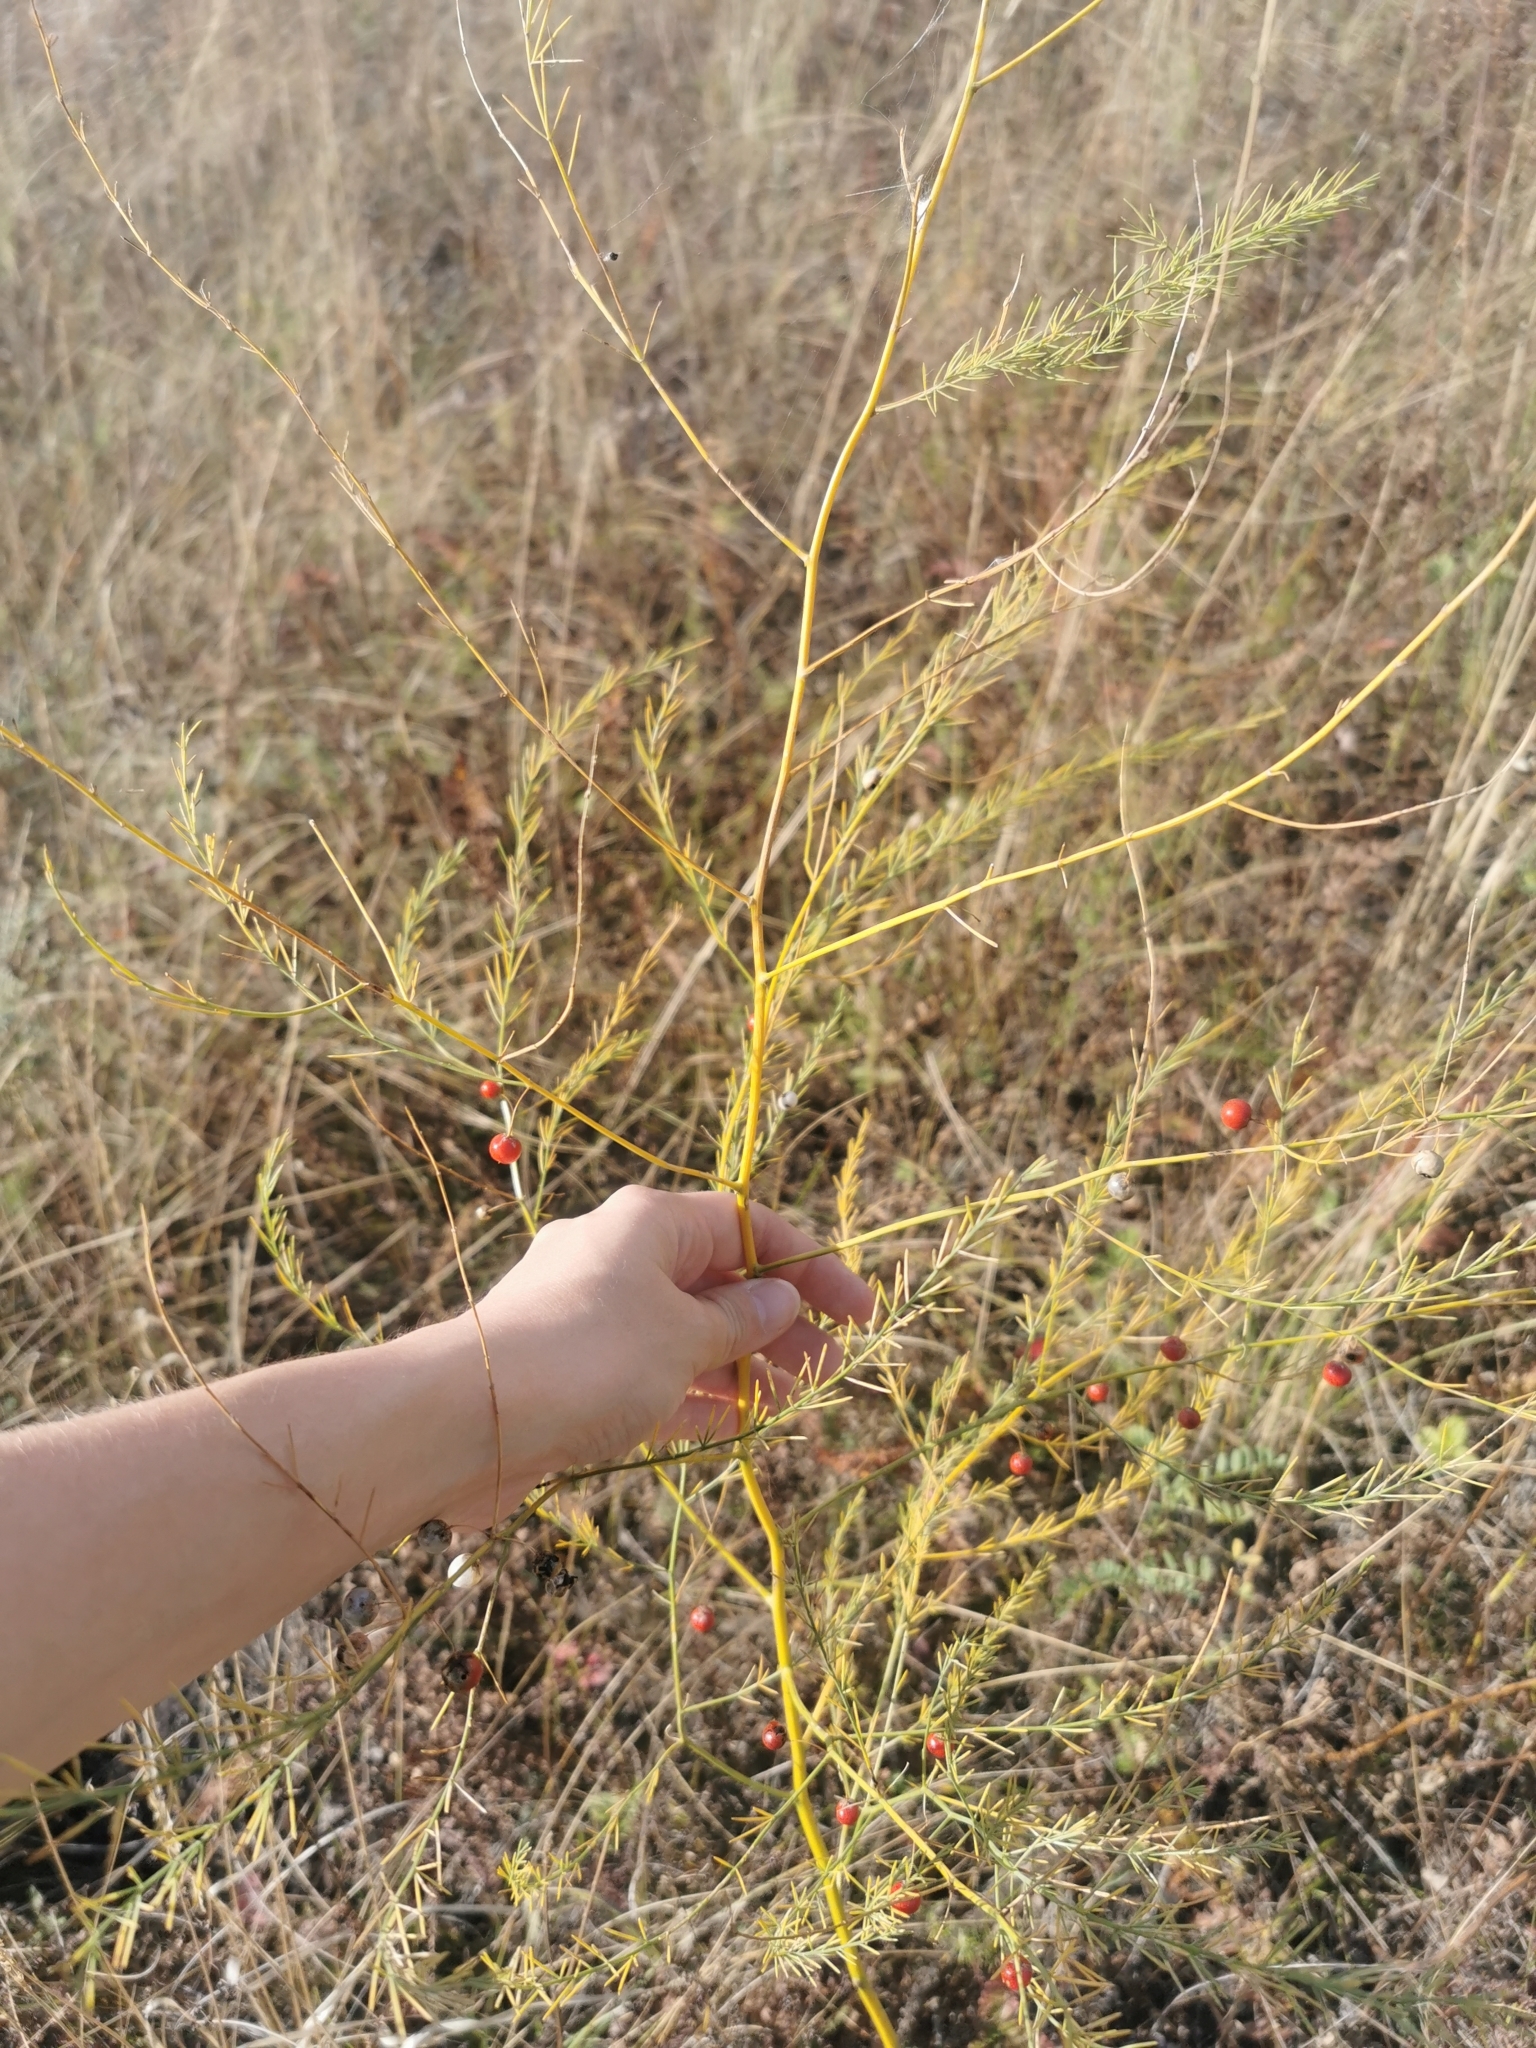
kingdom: Plantae
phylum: Tracheophyta
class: Liliopsida
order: Asparagales
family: Asparagaceae
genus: Asparagus
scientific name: Asparagus officinalis
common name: Garden asparagus
